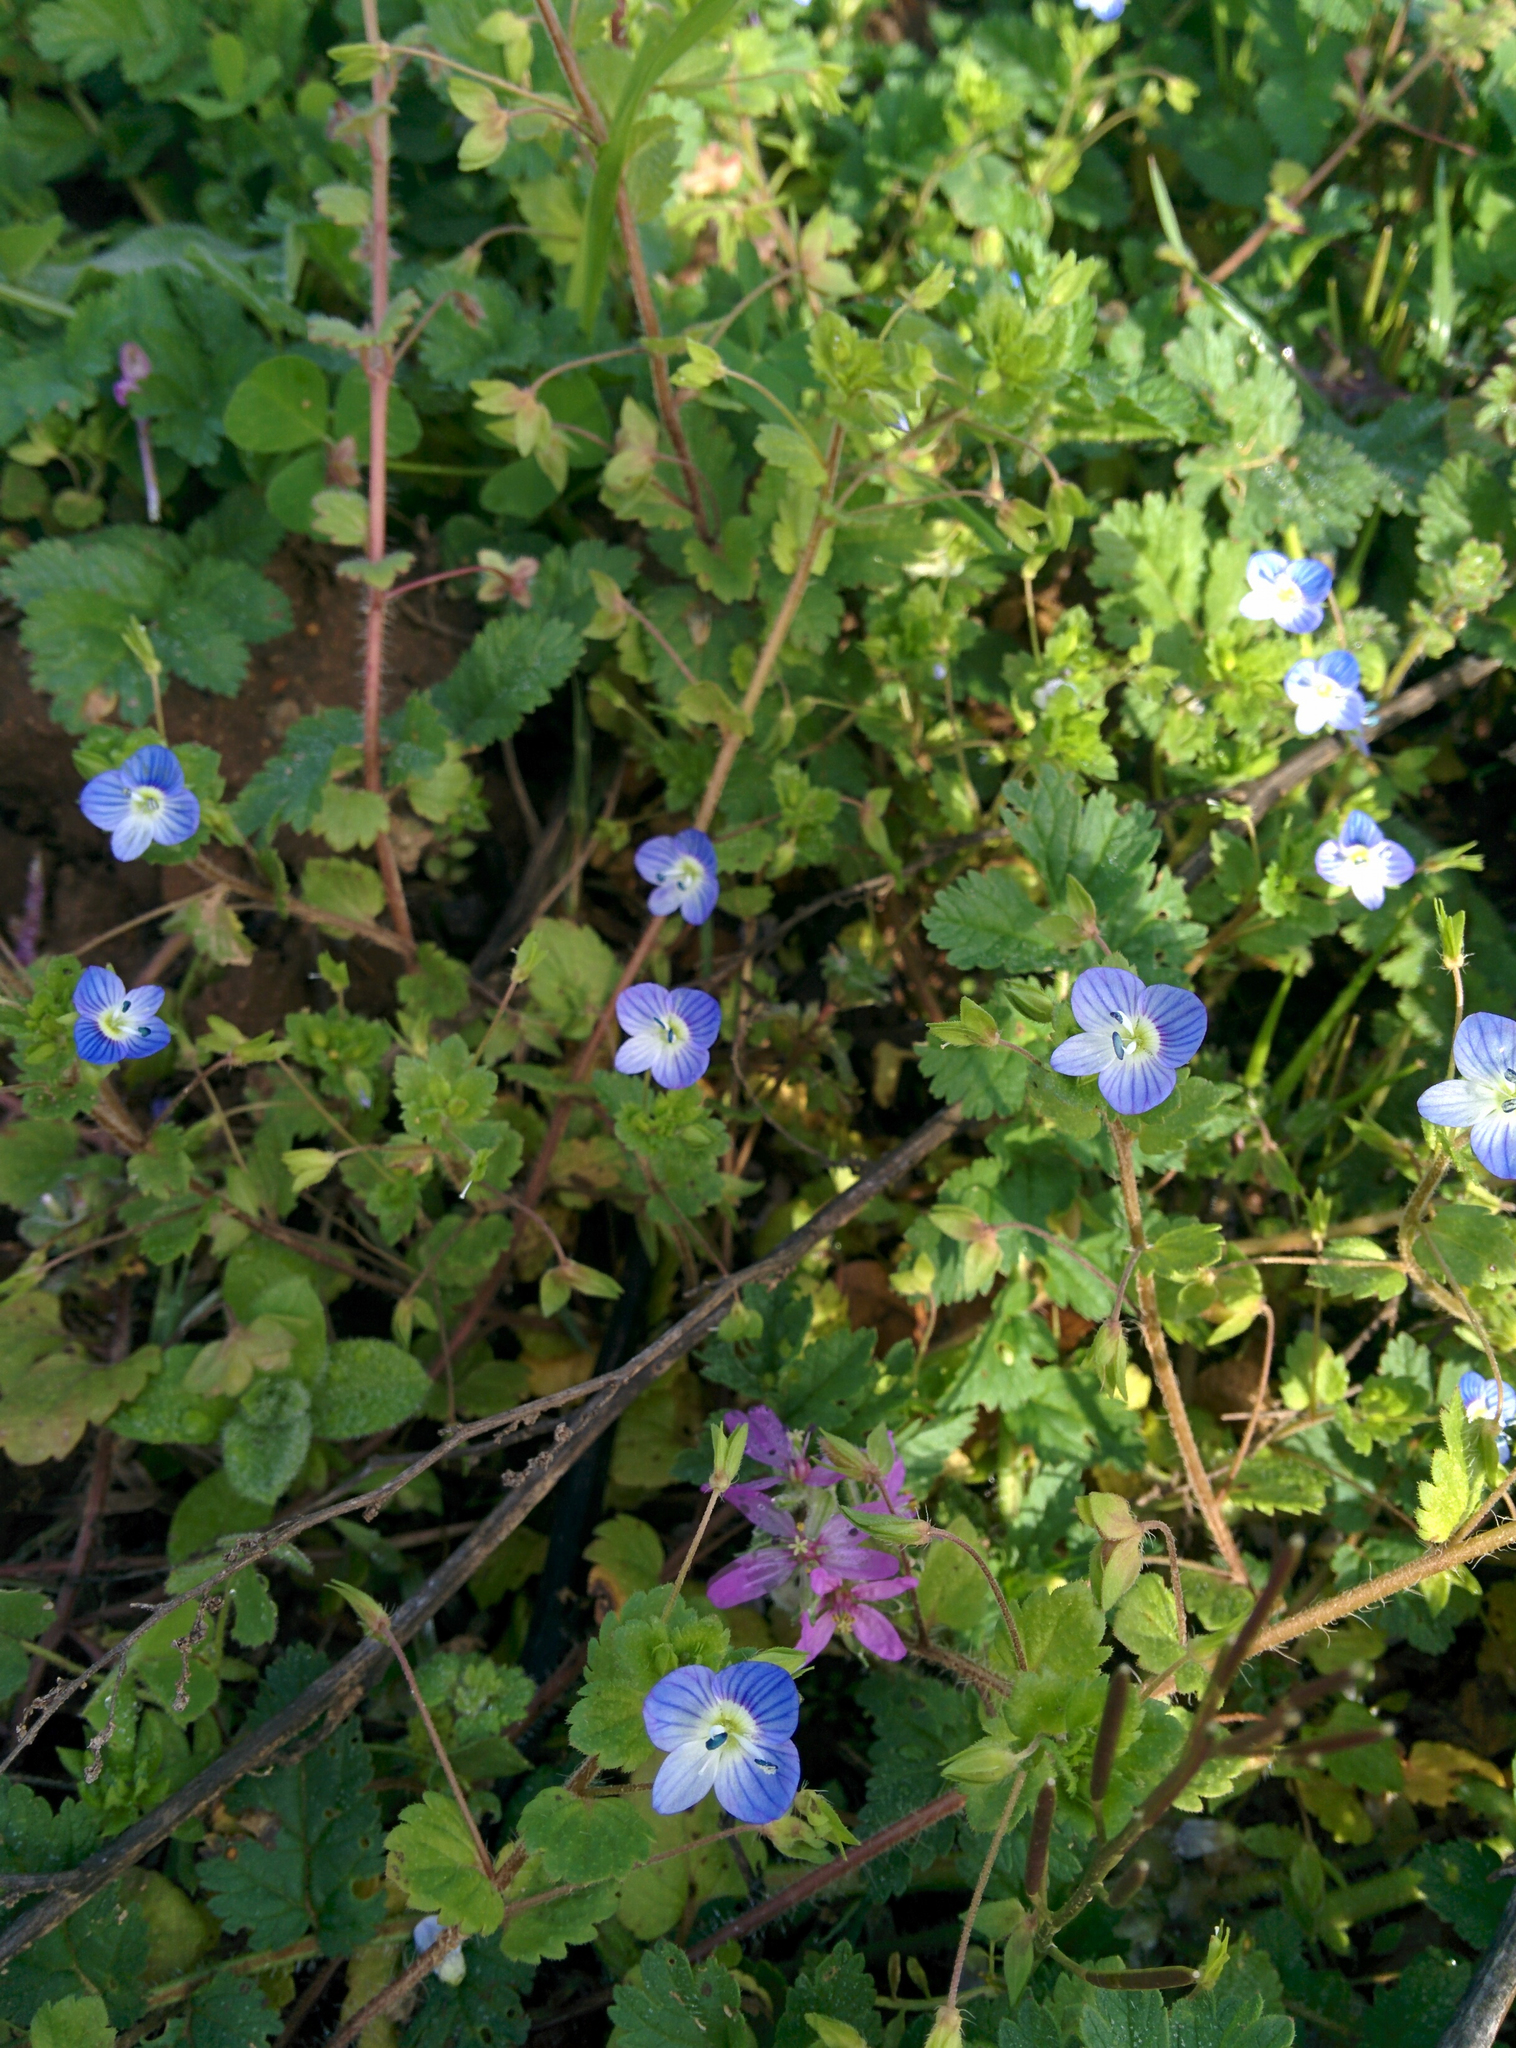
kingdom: Plantae
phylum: Tracheophyta
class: Magnoliopsida
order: Lamiales
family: Plantaginaceae
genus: Veronica
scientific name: Veronica persica
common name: Common field-speedwell
